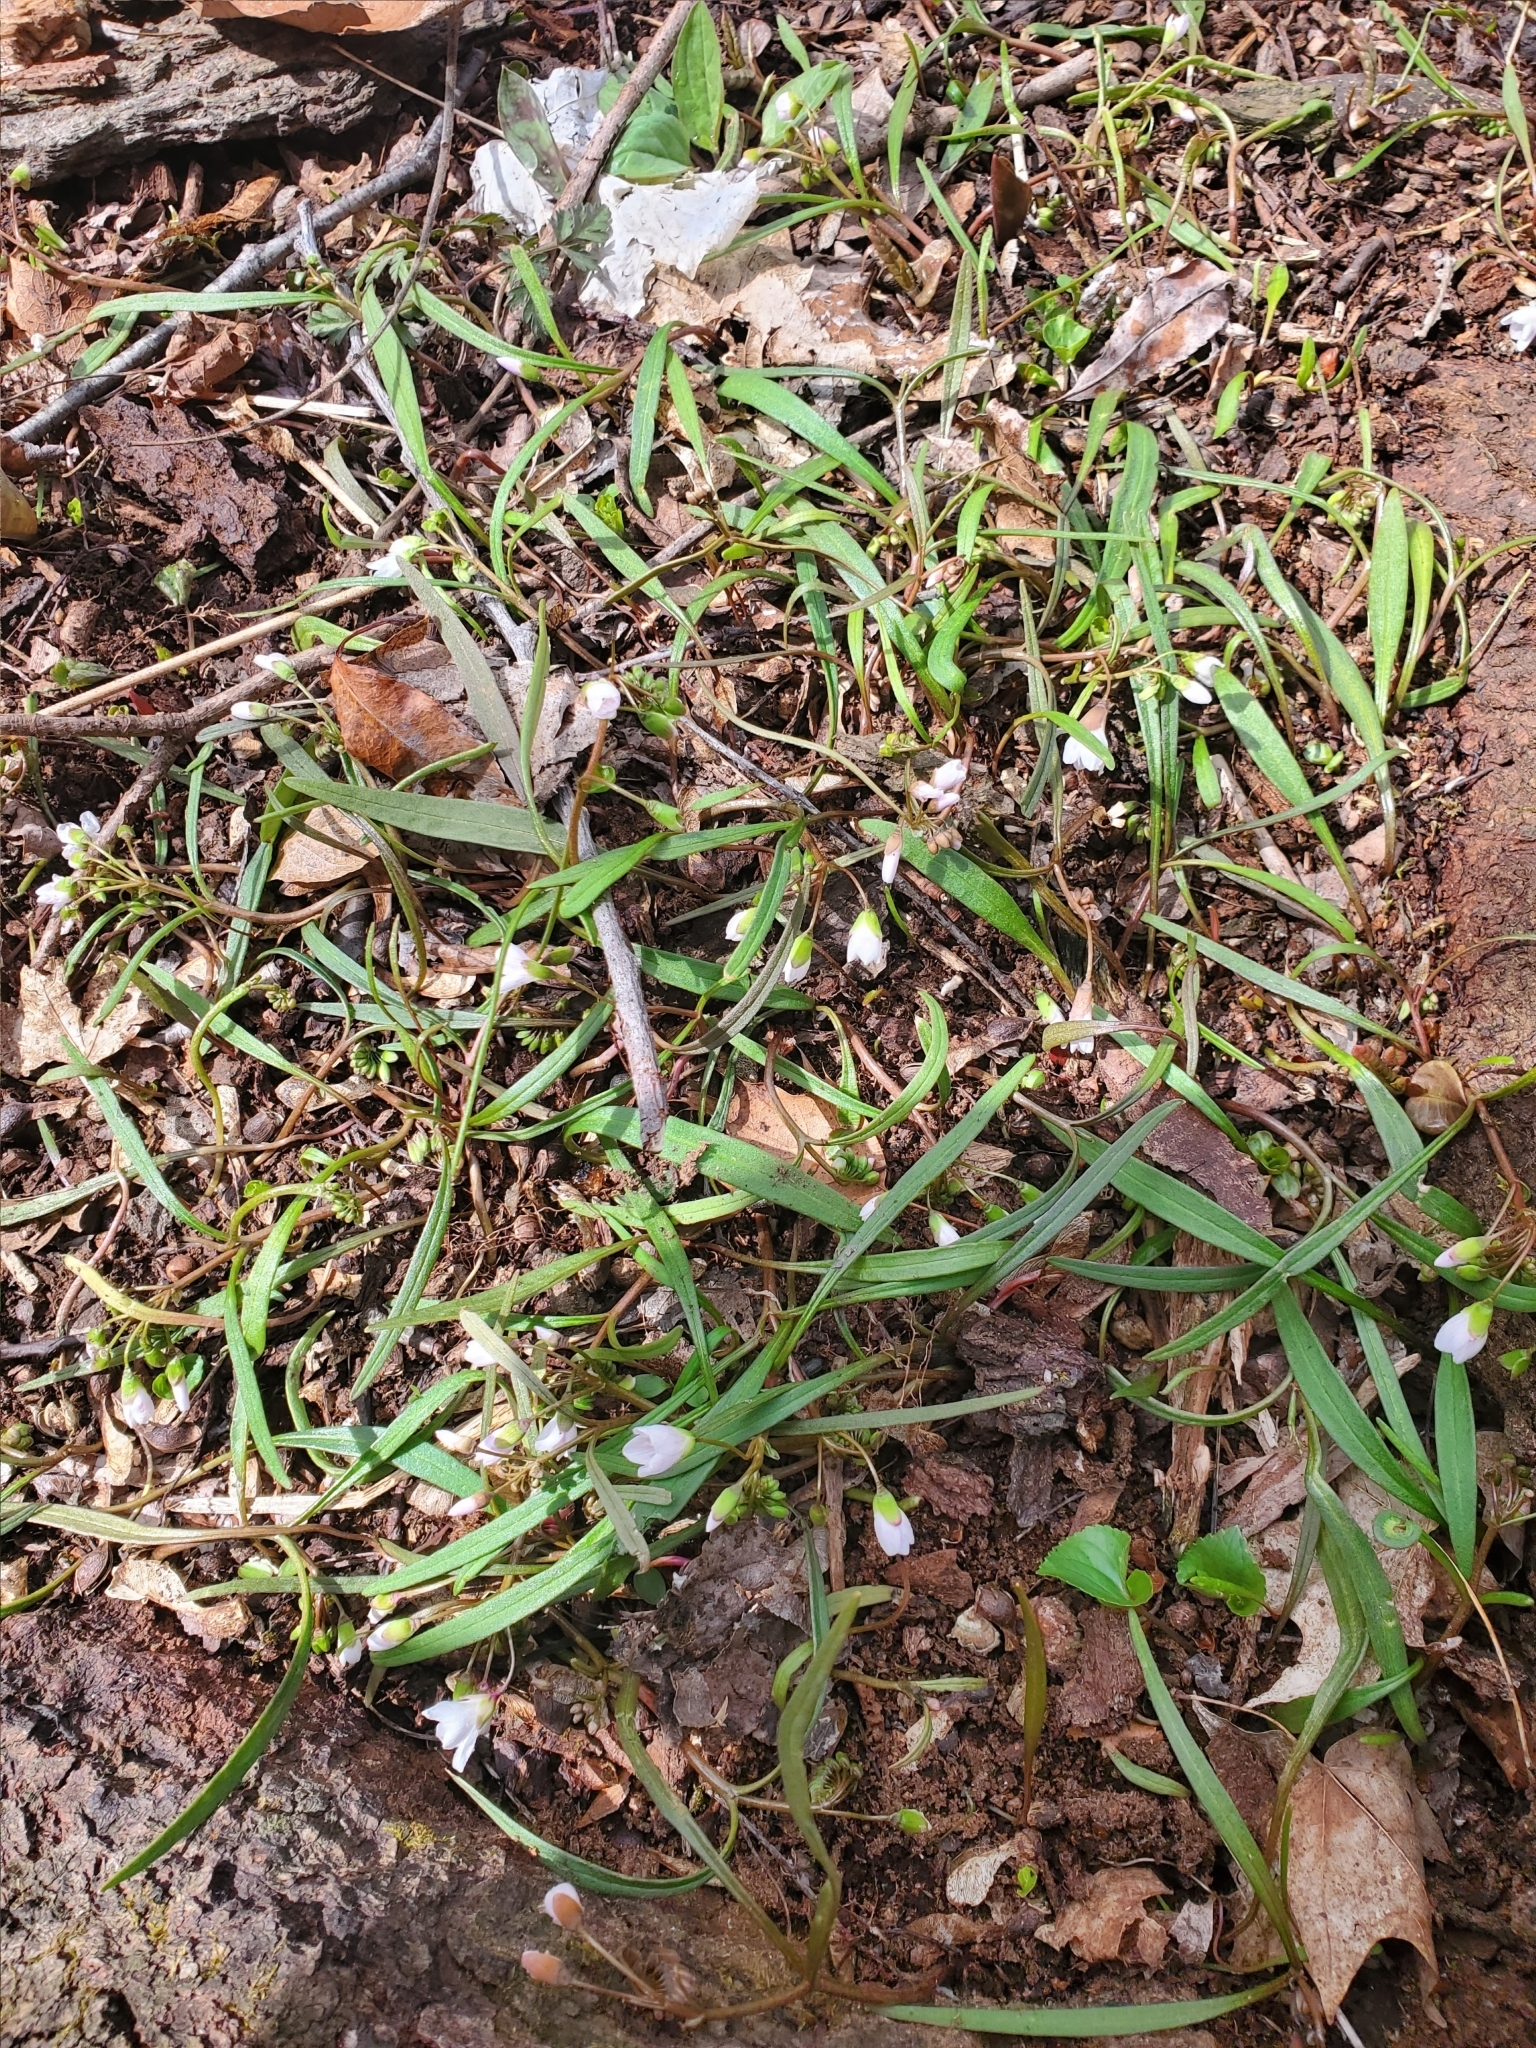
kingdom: Plantae
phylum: Tracheophyta
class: Magnoliopsida
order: Caryophyllales
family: Montiaceae
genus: Claytonia
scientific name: Claytonia virginica
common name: Virginia springbeauty
